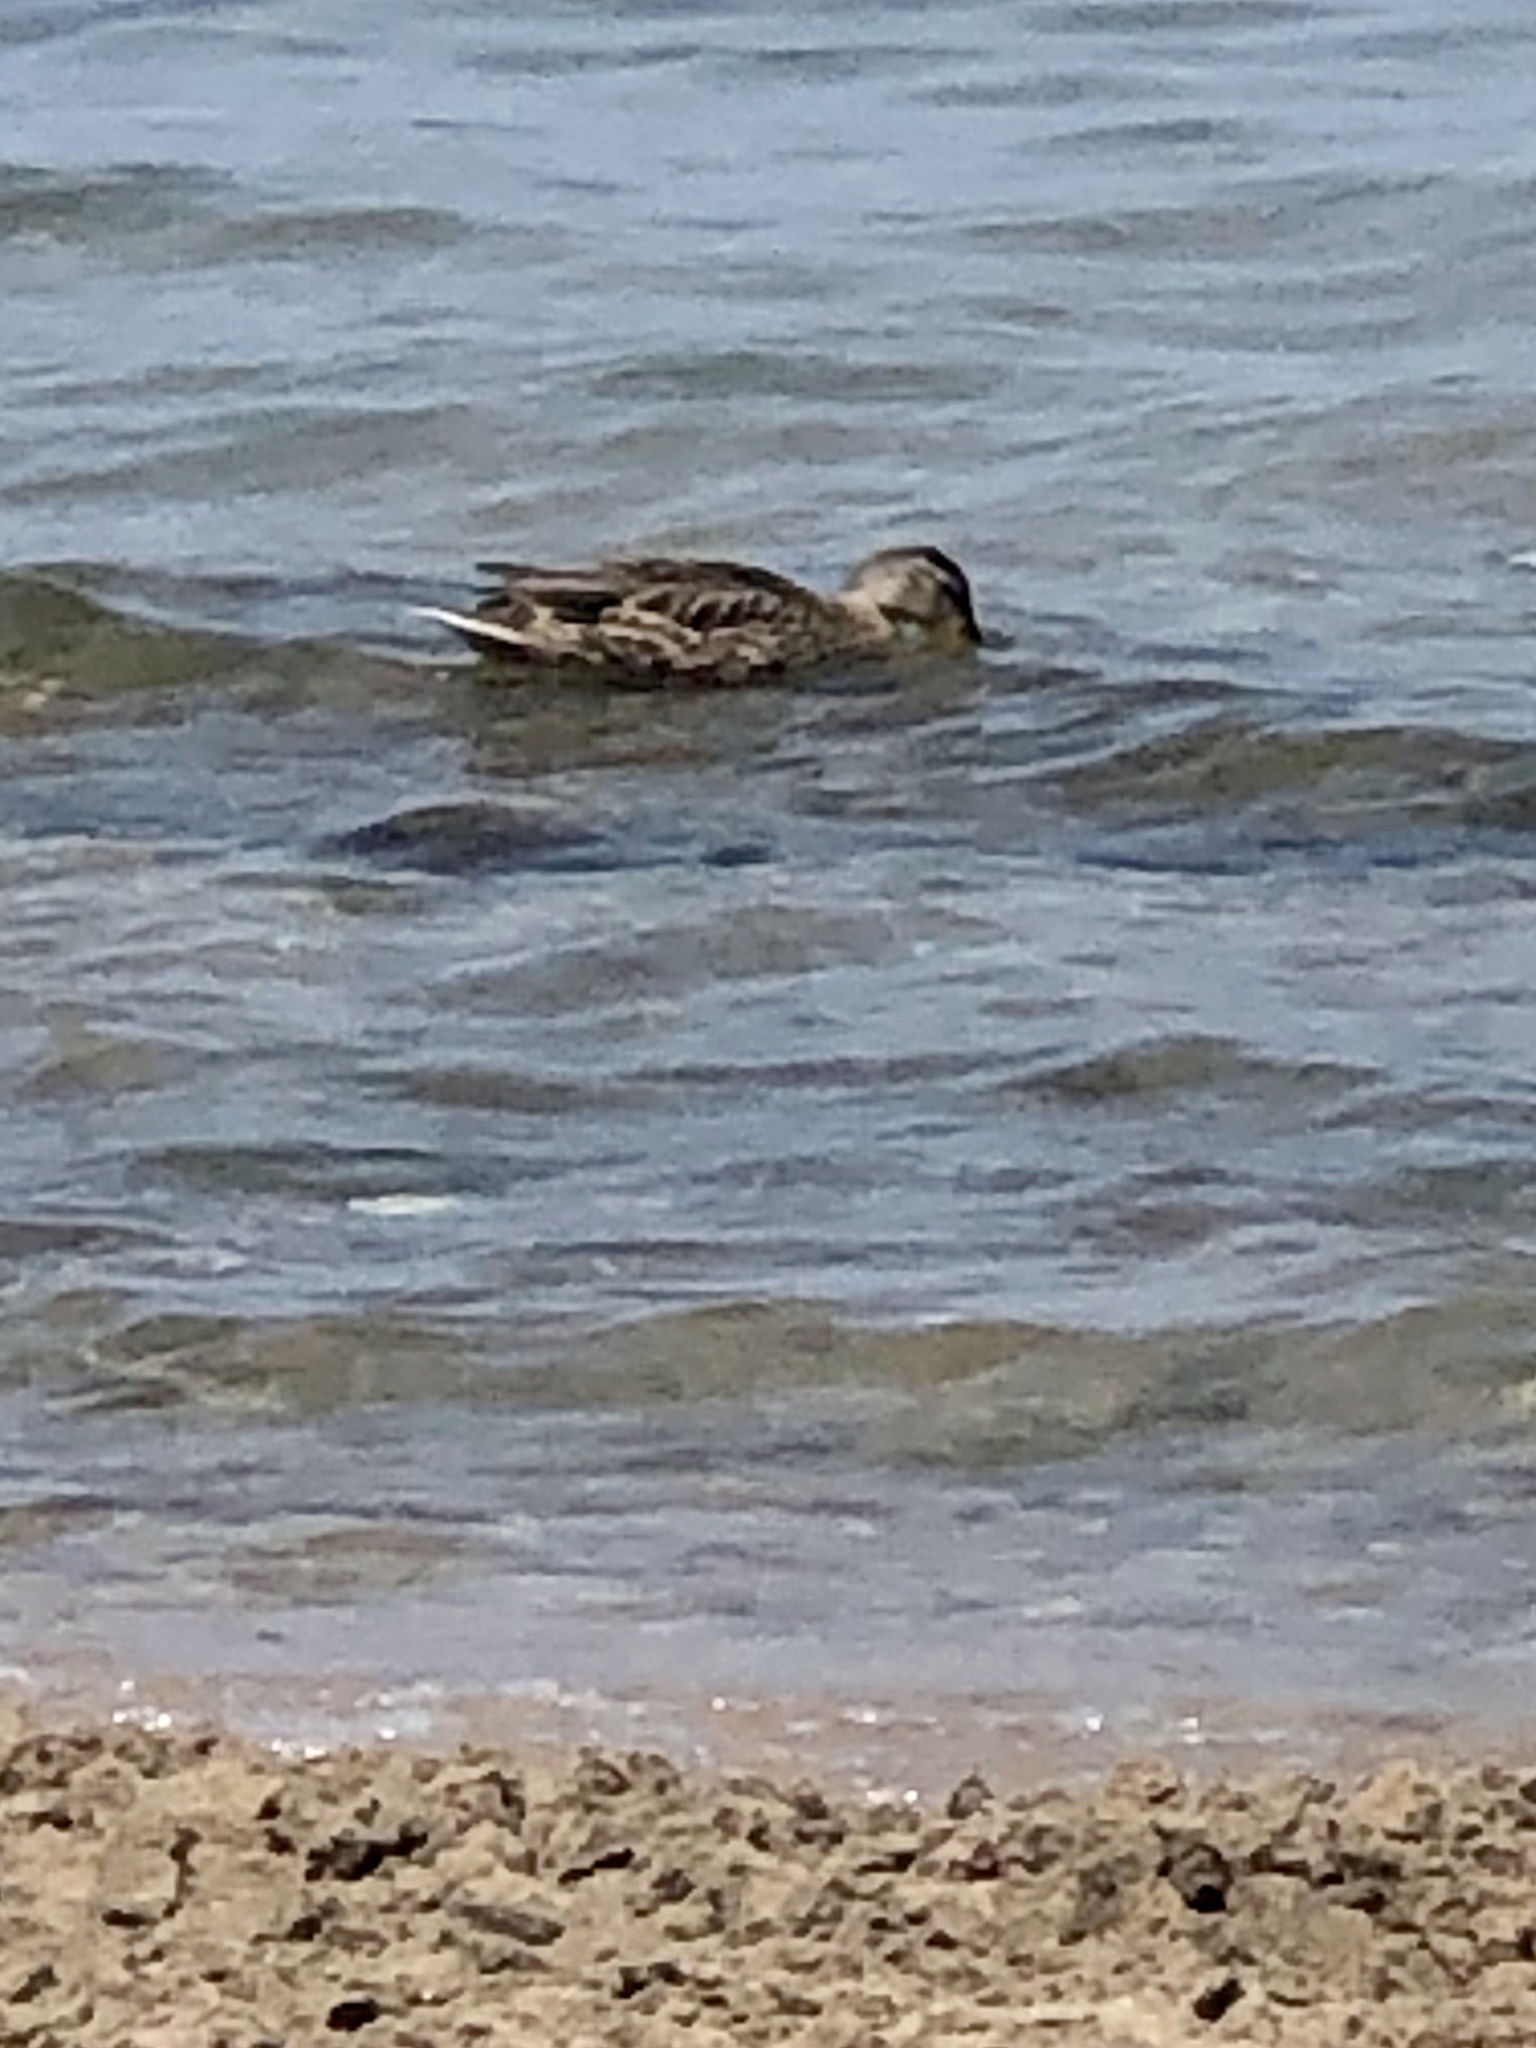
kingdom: Animalia
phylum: Chordata
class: Aves
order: Anseriformes
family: Anatidae
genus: Anas
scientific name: Anas platyrhynchos
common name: Mallard
